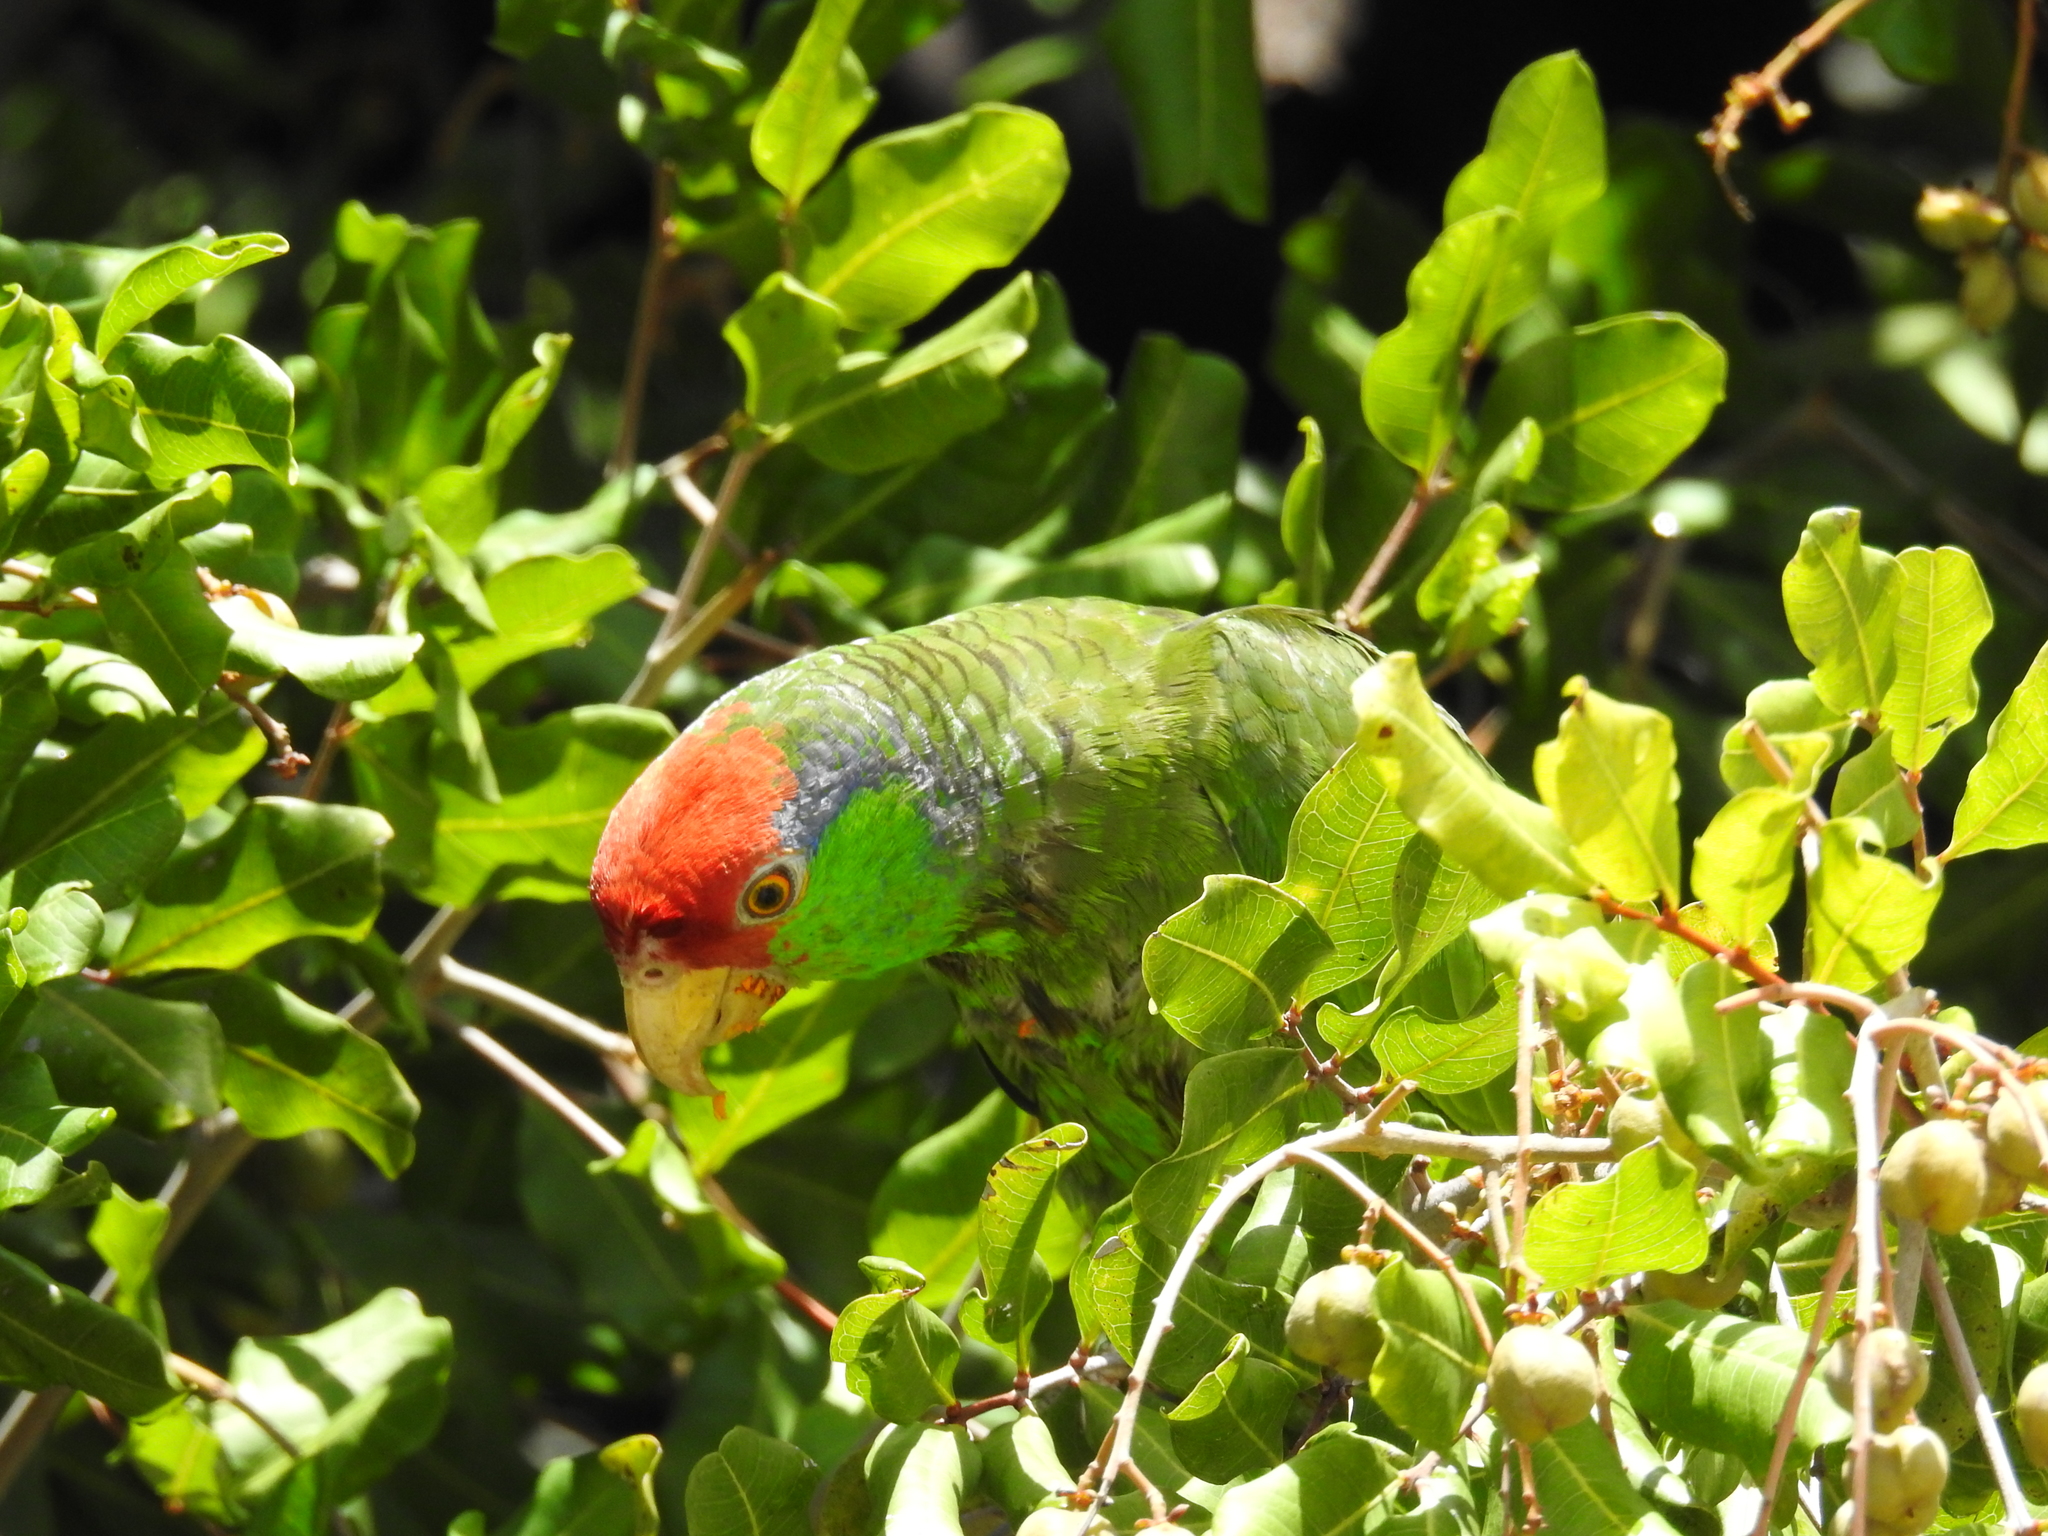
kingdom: Animalia
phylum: Chordata
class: Aves
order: Psittaciformes
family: Psittacidae
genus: Amazona
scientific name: Amazona viridigenalis
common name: Red-crowned amazon
